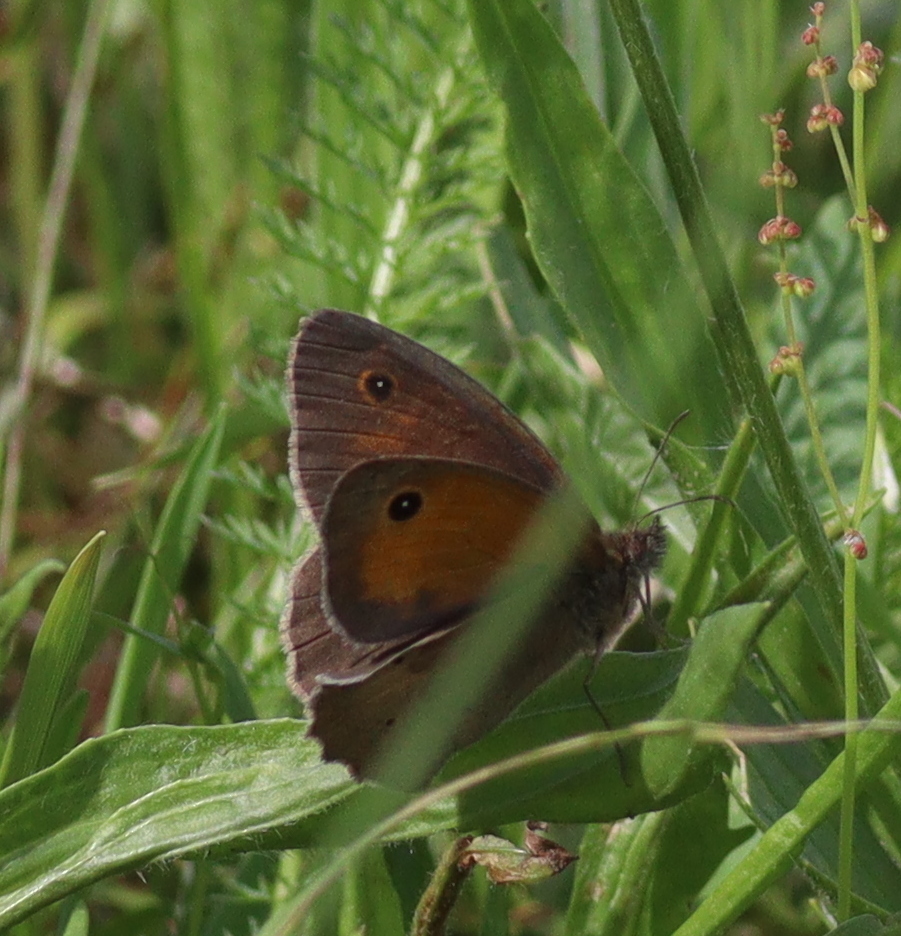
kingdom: Animalia
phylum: Arthropoda
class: Insecta
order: Lepidoptera
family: Nymphalidae
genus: Maniola
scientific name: Maniola jurtina
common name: Meadow brown
